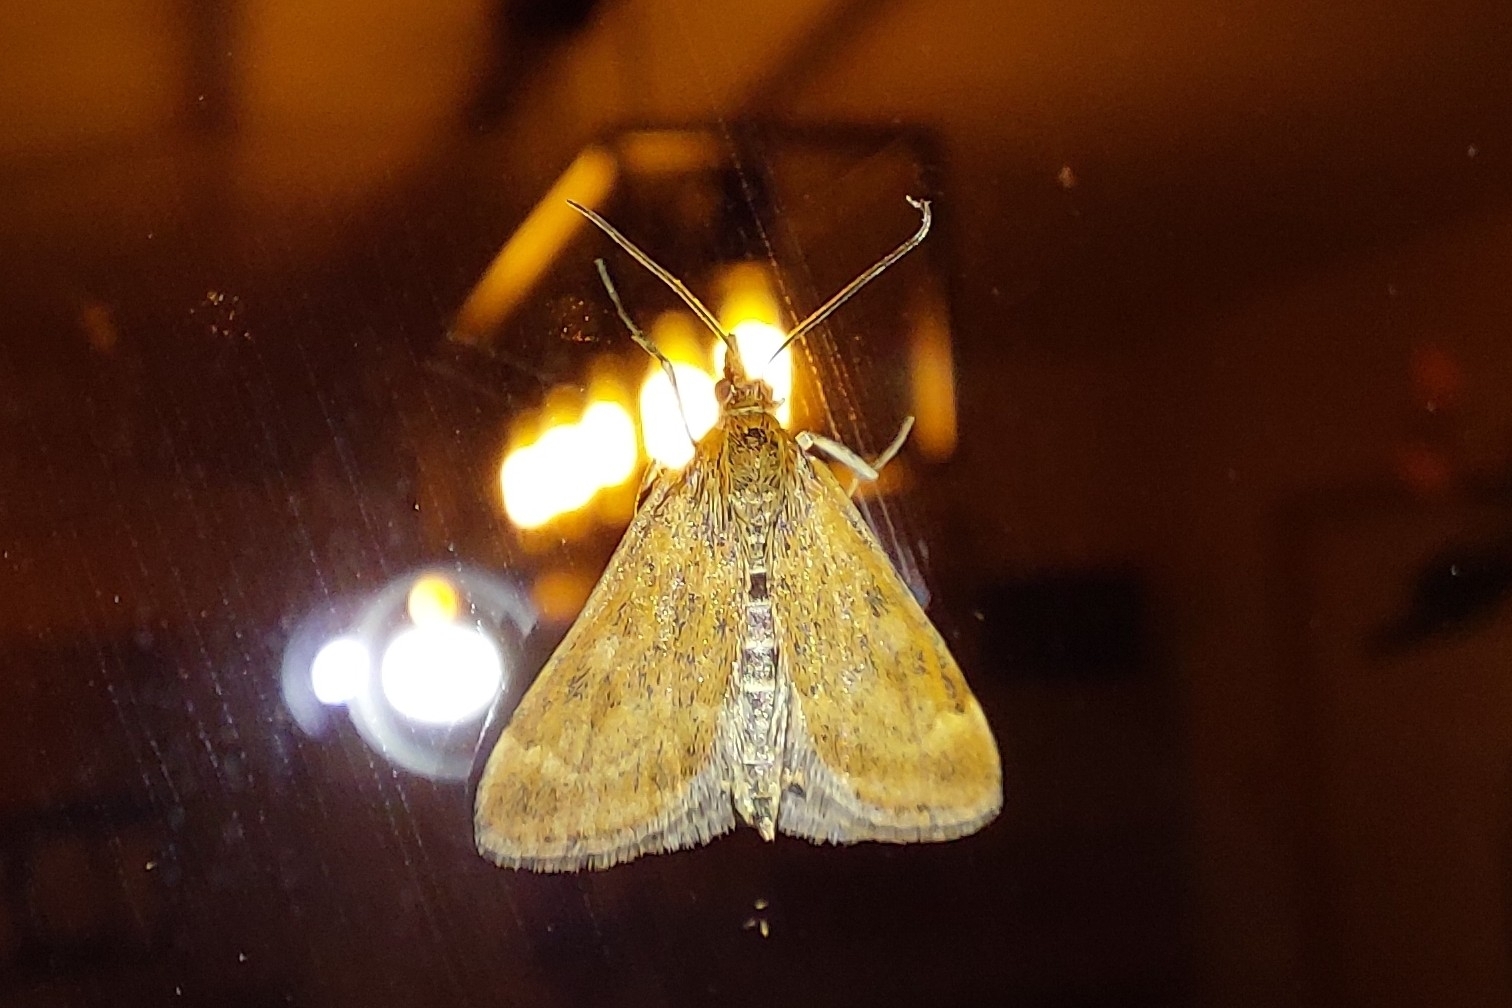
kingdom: Animalia
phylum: Arthropoda
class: Insecta
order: Lepidoptera
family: Crambidae
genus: Pyrausta
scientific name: Pyrausta despicata
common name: Straw-barred pearl
